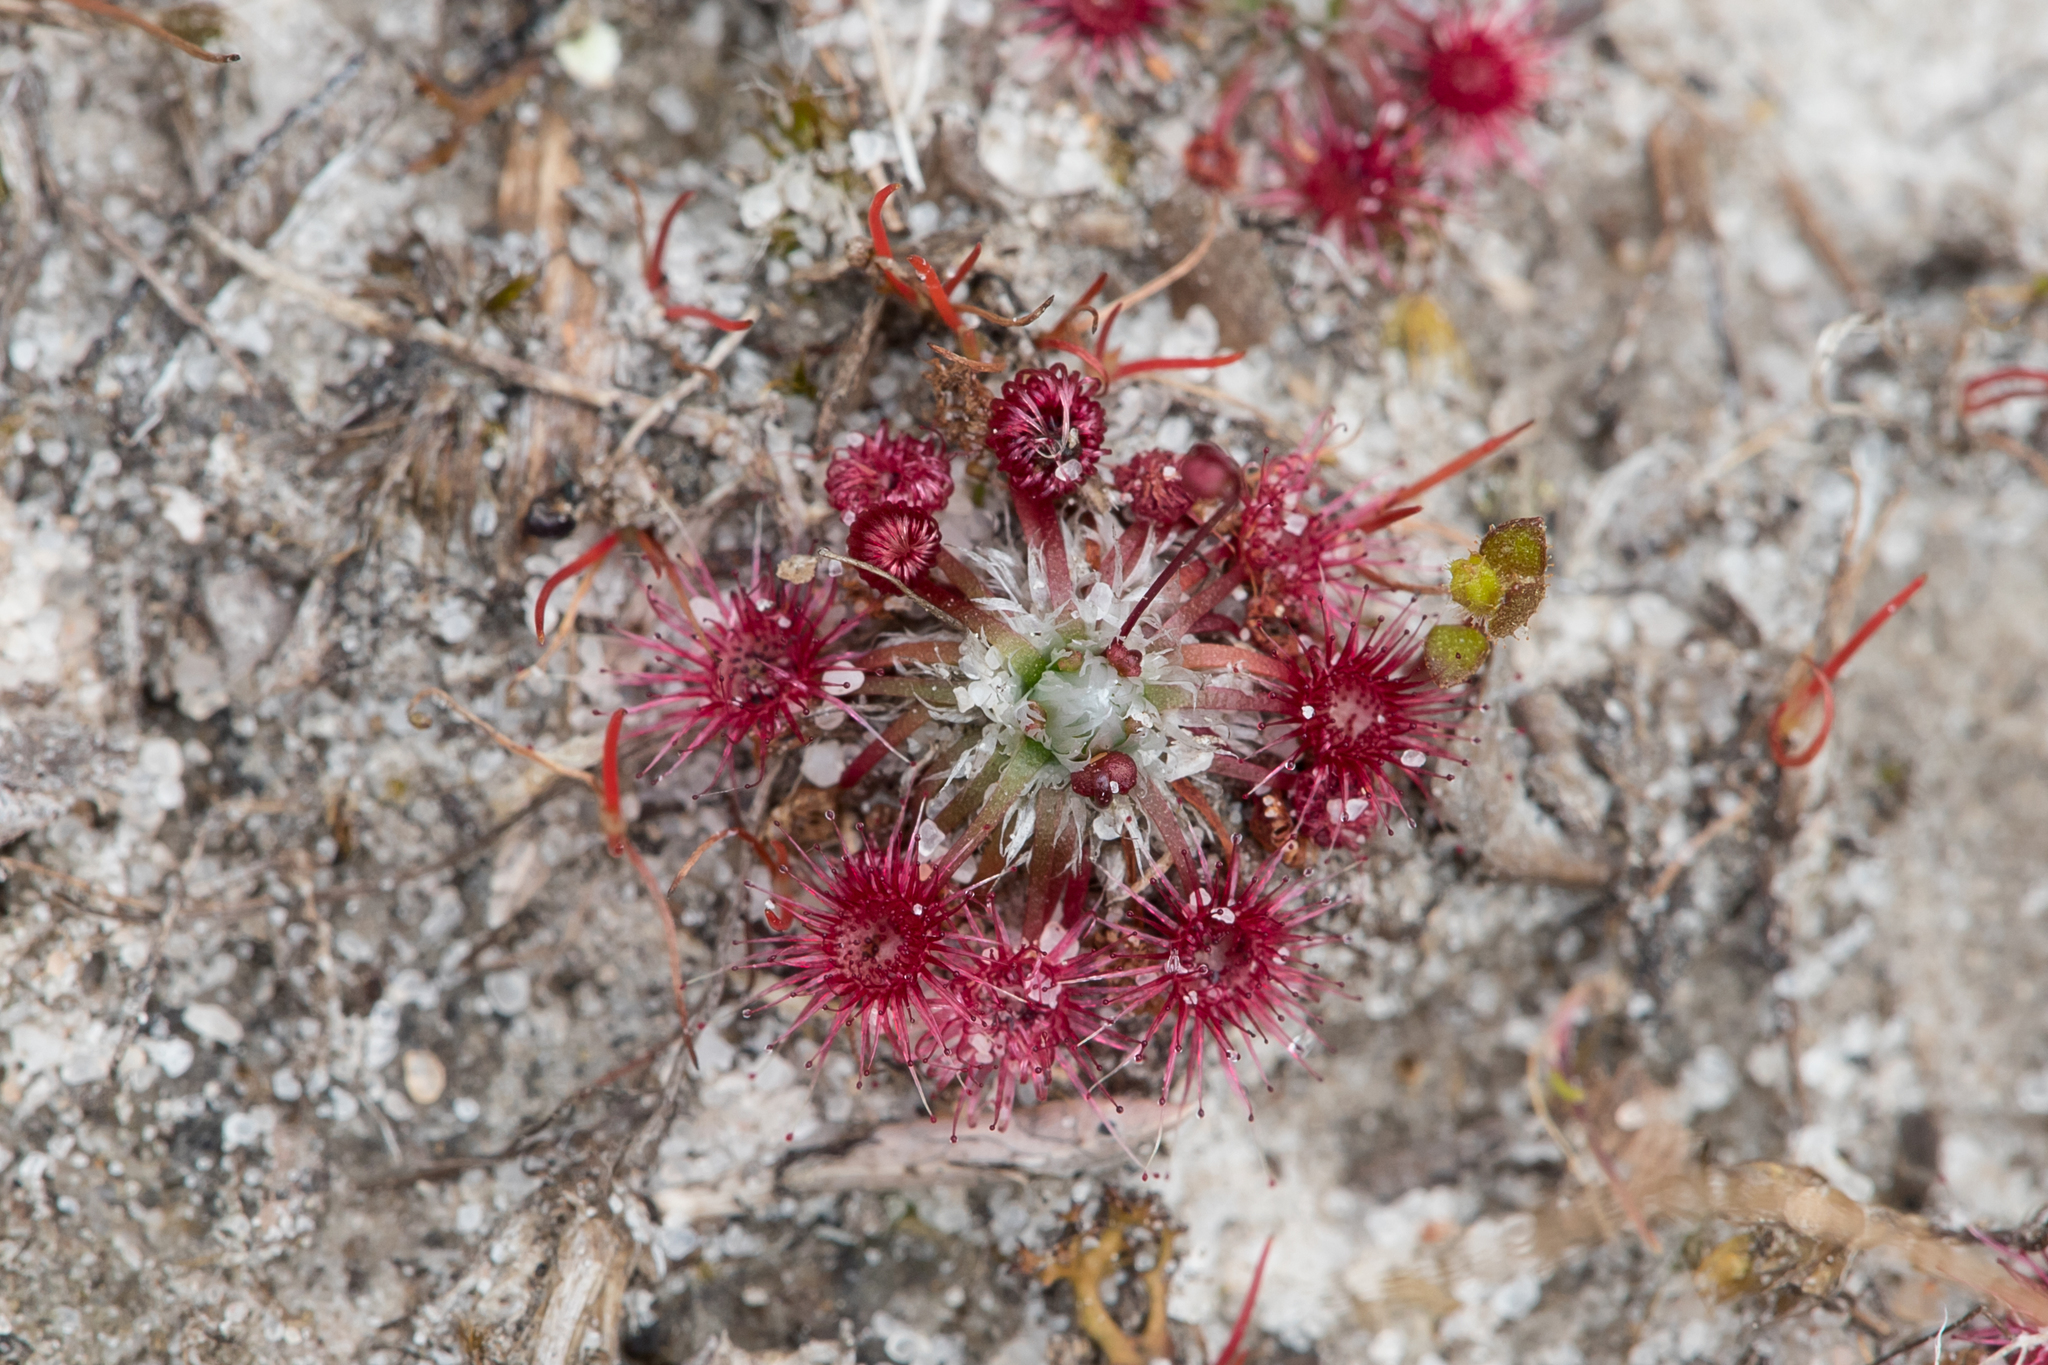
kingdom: Plantae
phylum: Tracheophyta
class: Magnoliopsida
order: Caryophyllales
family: Droseraceae
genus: Drosera
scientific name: Drosera pygmaea
